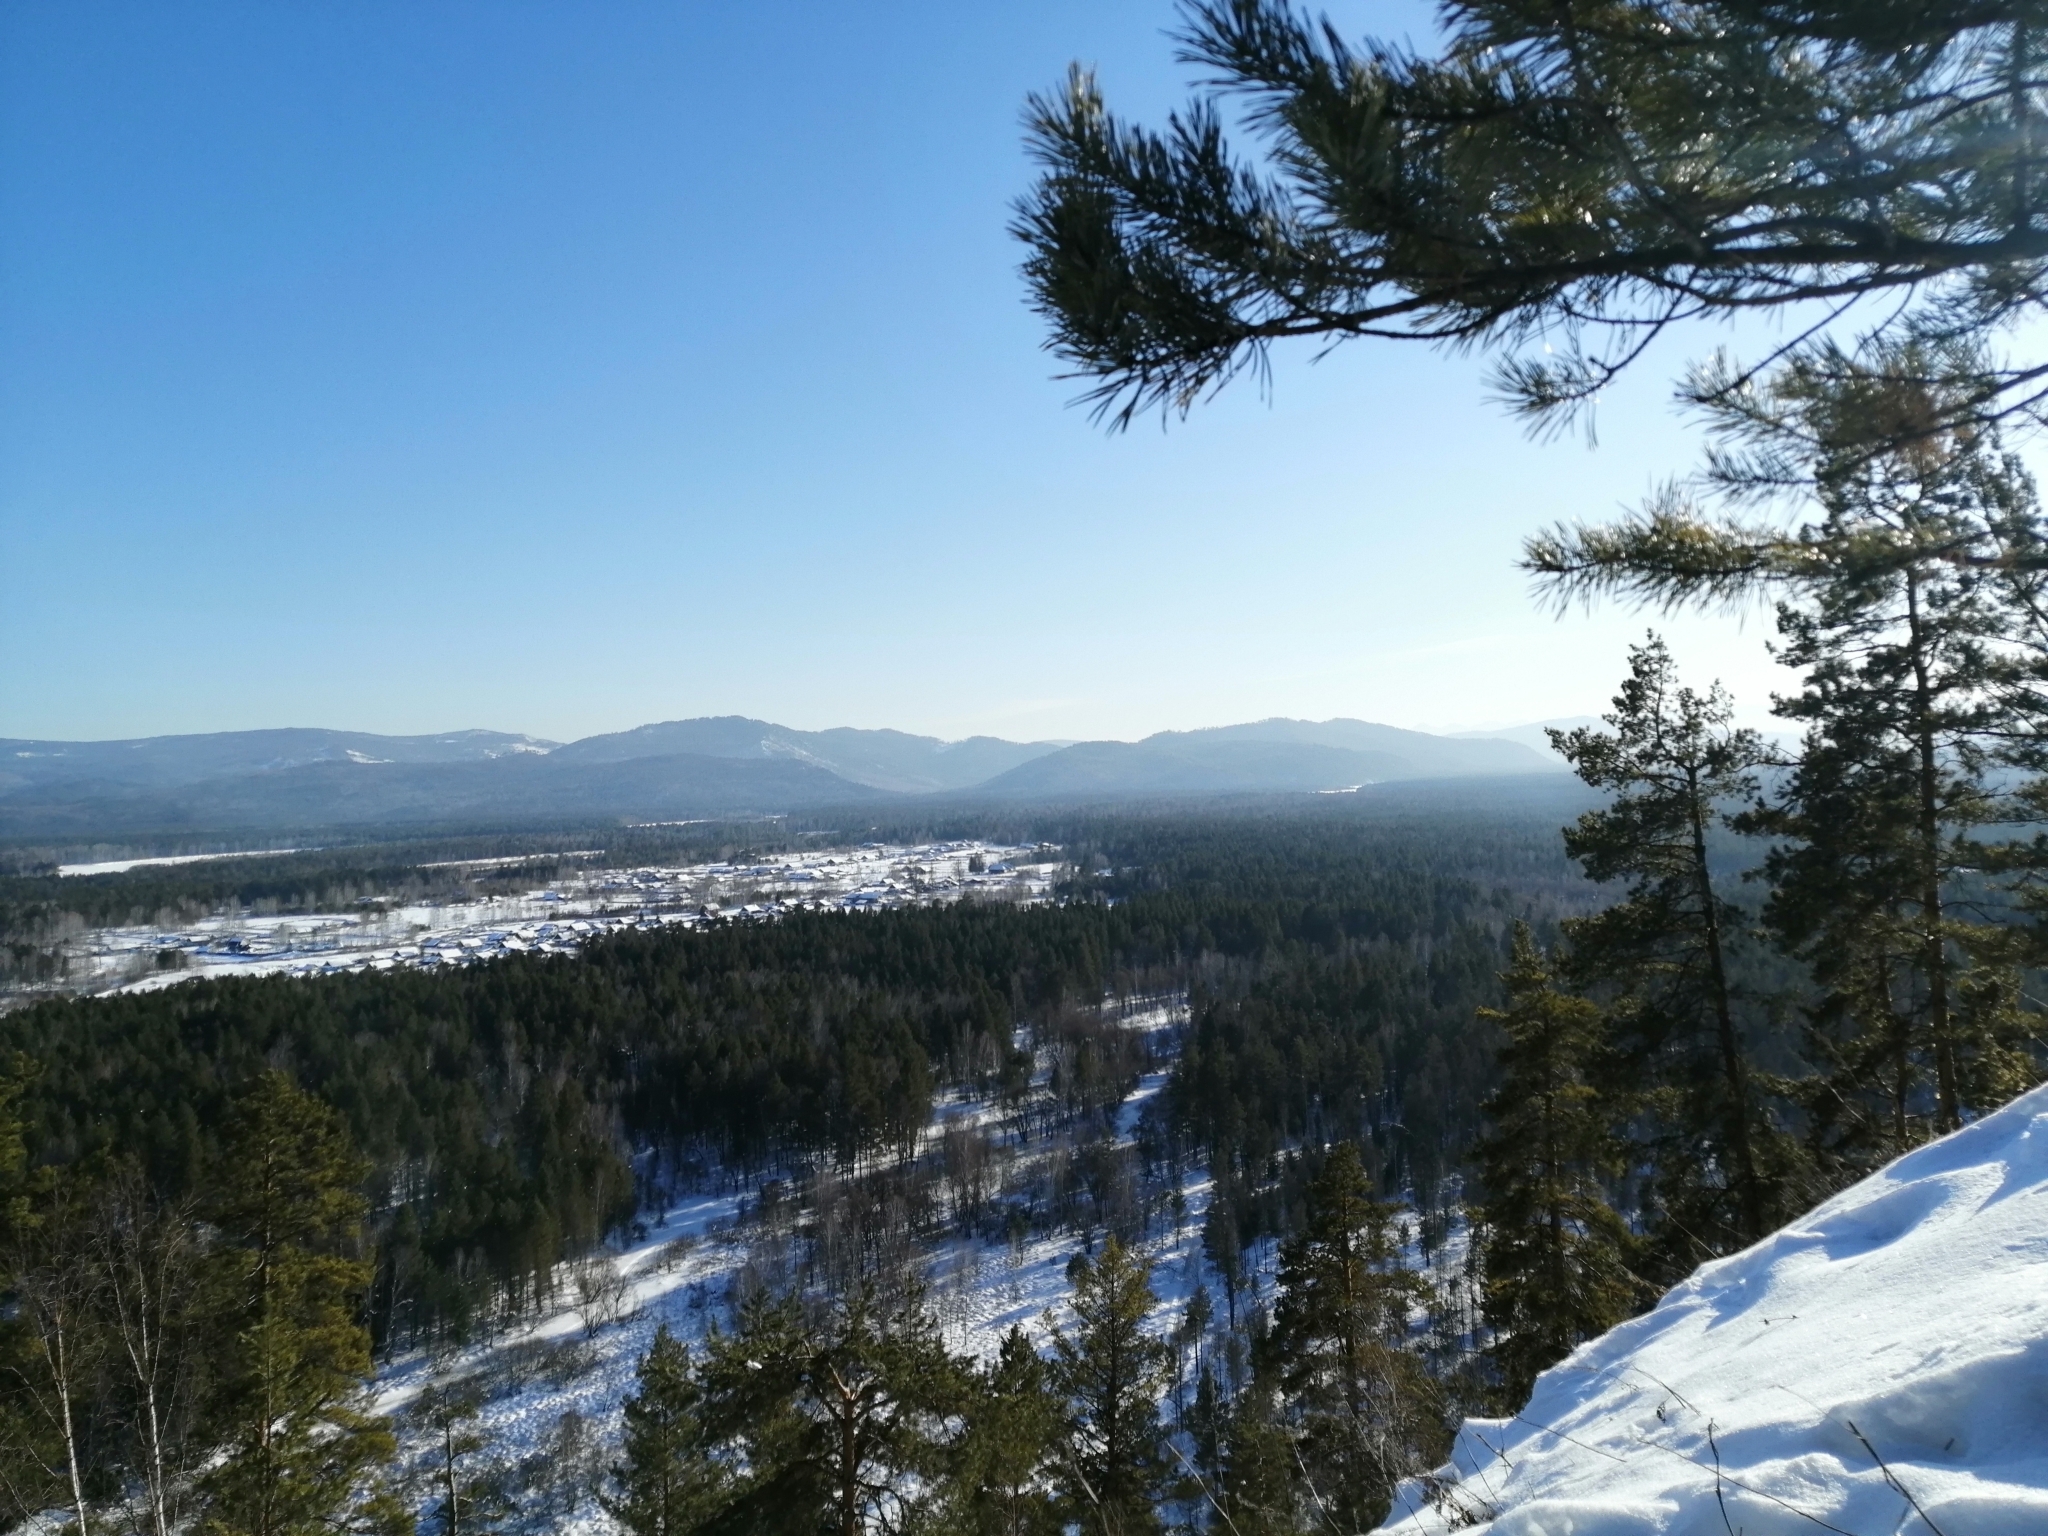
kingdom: Plantae
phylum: Tracheophyta
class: Pinopsida
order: Pinales
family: Pinaceae
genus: Pinus
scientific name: Pinus sylvestris
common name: Scots pine
